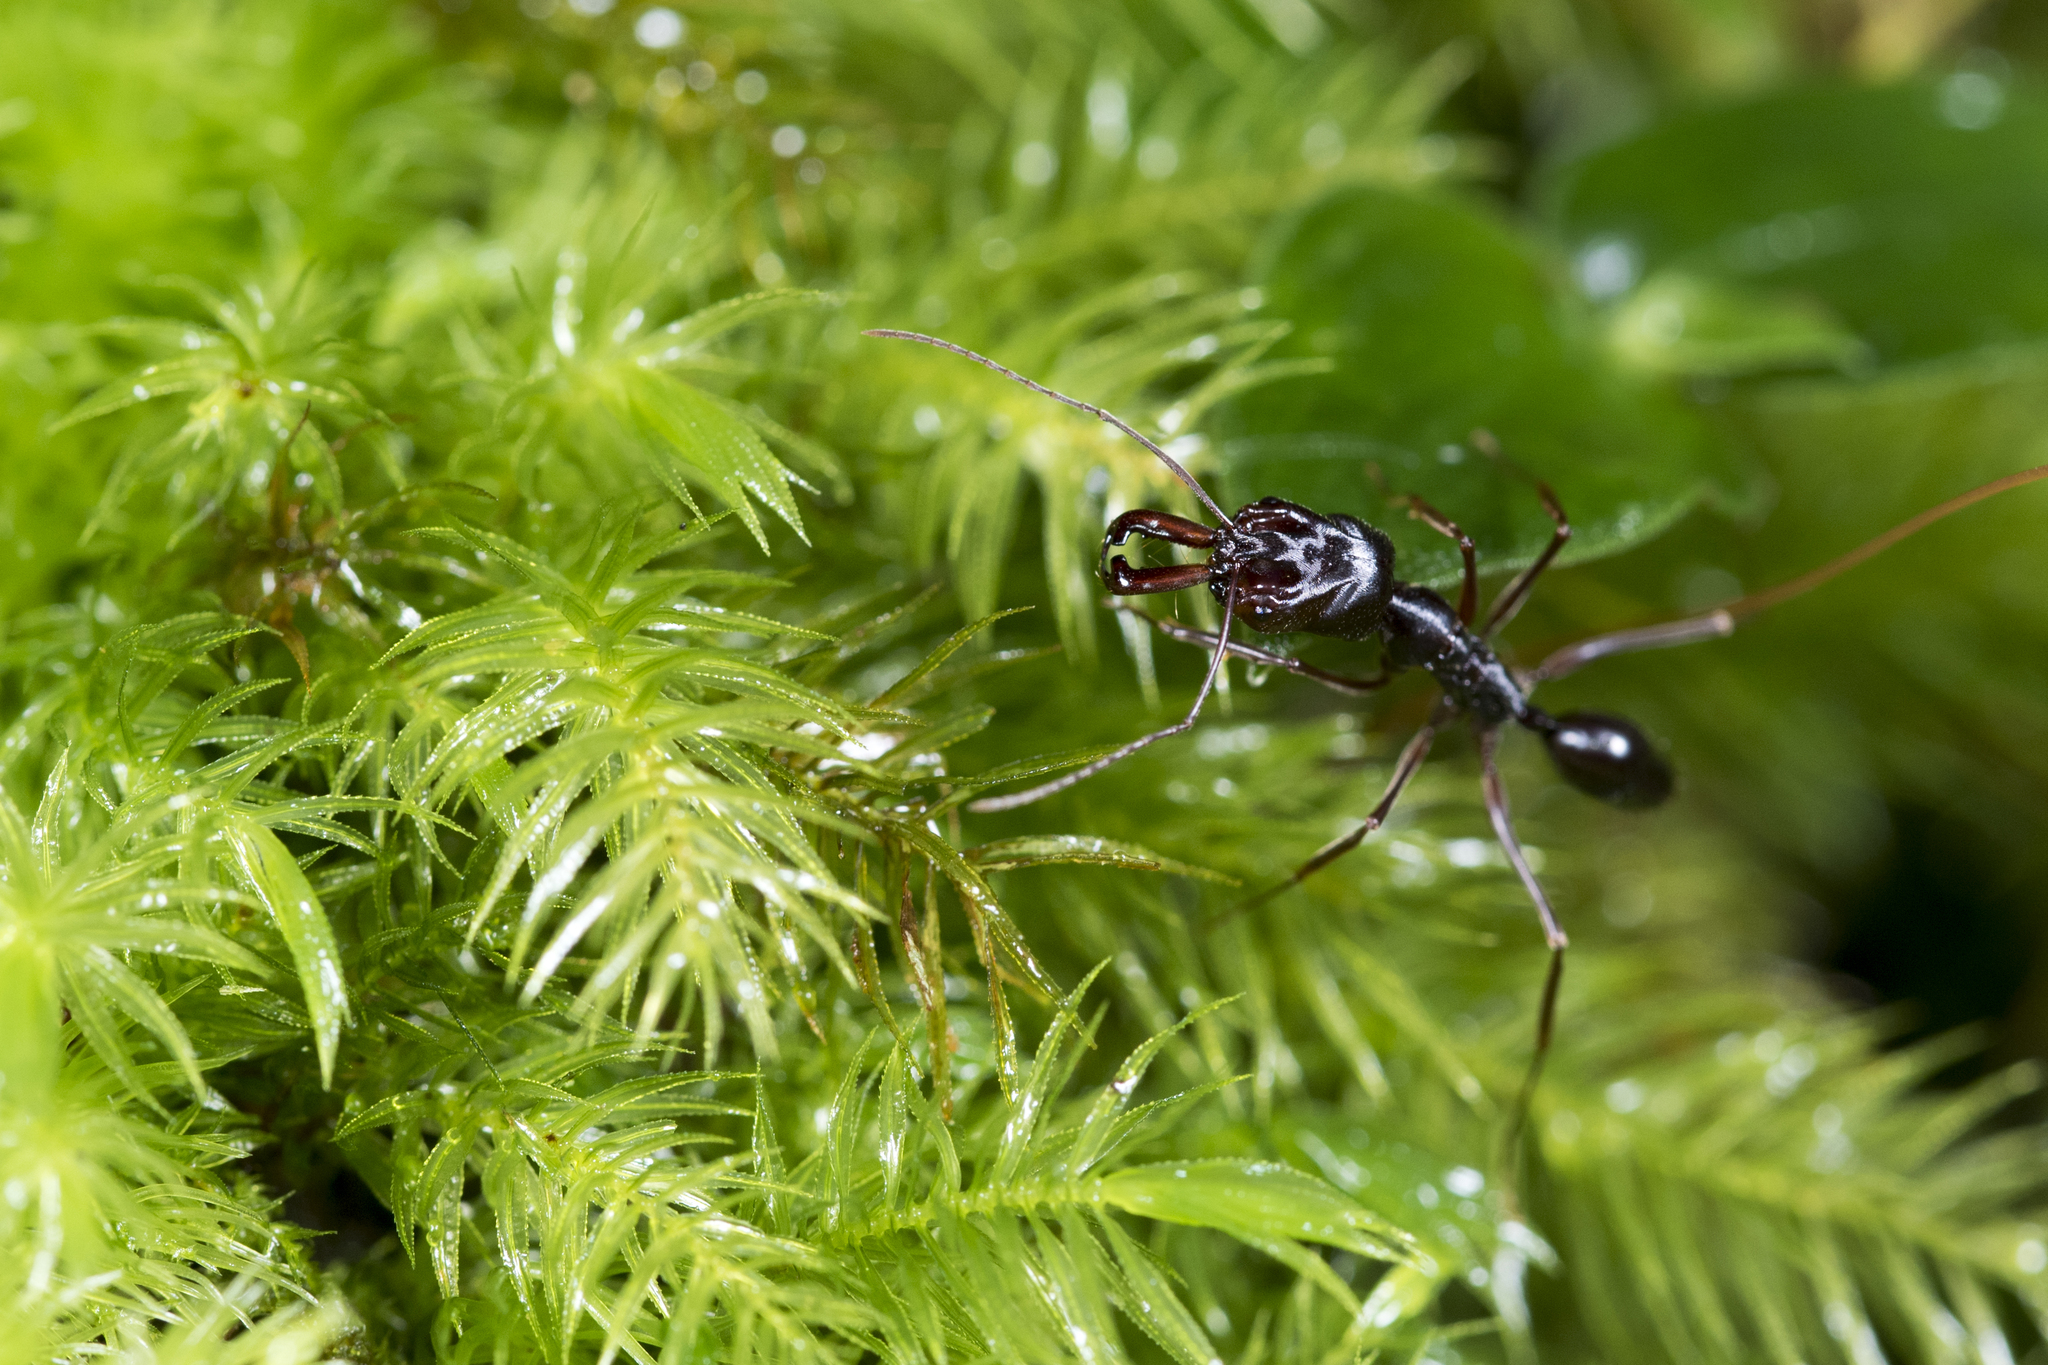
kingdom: Animalia
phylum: Arthropoda
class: Insecta
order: Hymenoptera
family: Formicidae
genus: Odontomachus
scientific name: Odontomachus monticola
